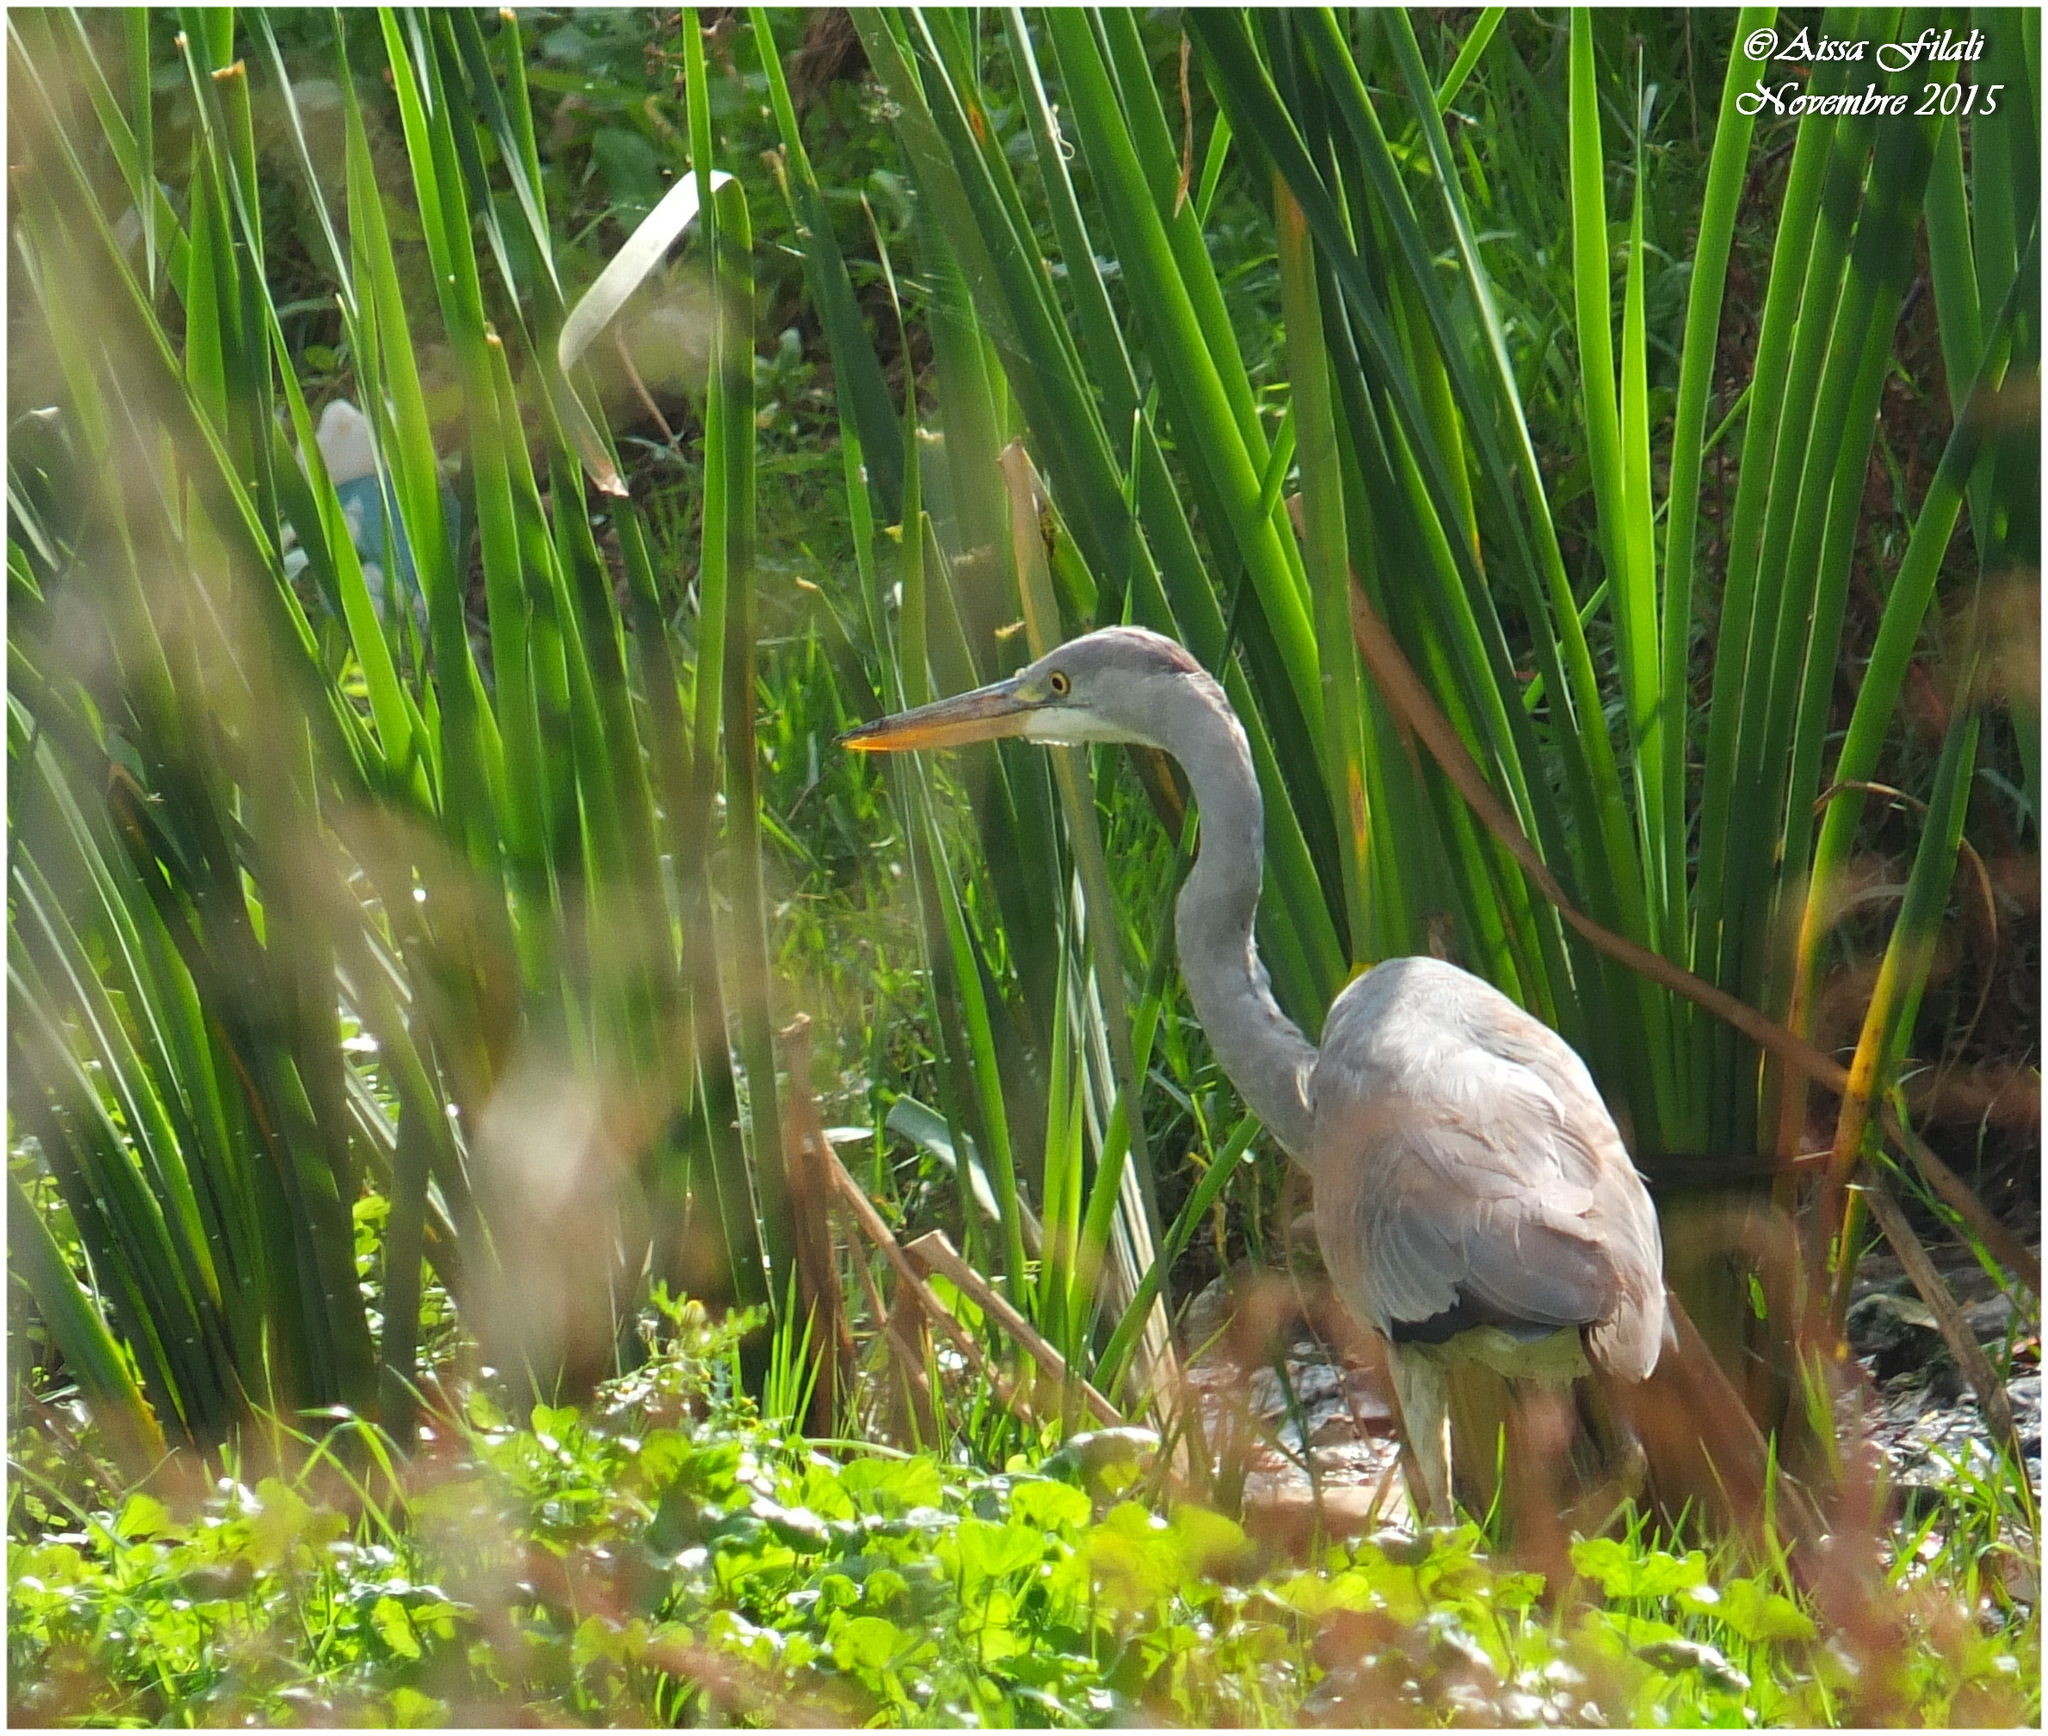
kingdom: Animalia
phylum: Chordata
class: Aves
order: Pelecaniformes
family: Ardeidae
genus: Ardea
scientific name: Ardea cinerea
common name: Grey heron
